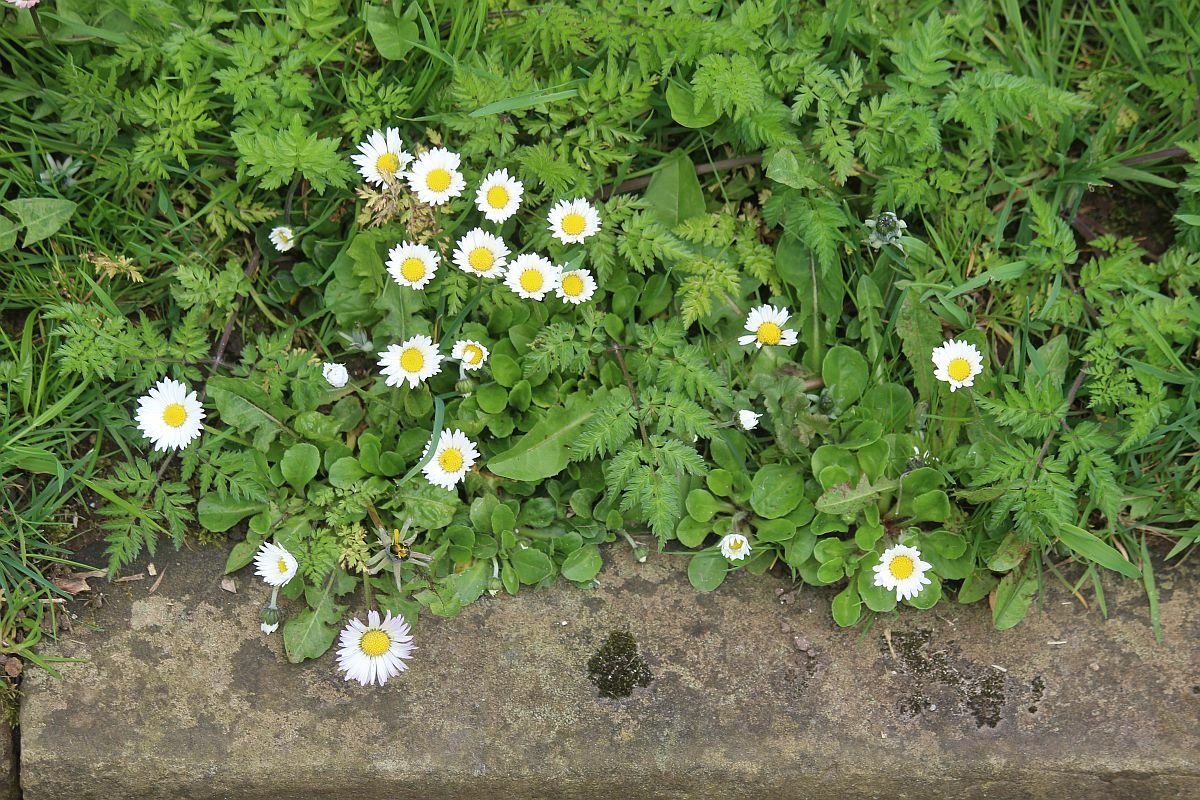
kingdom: Plantae
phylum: Tracheophyta
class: Magnoliopsida
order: Asterales
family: Asteraceae
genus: Bellis
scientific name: Bellis perennis
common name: Lawndaisy
